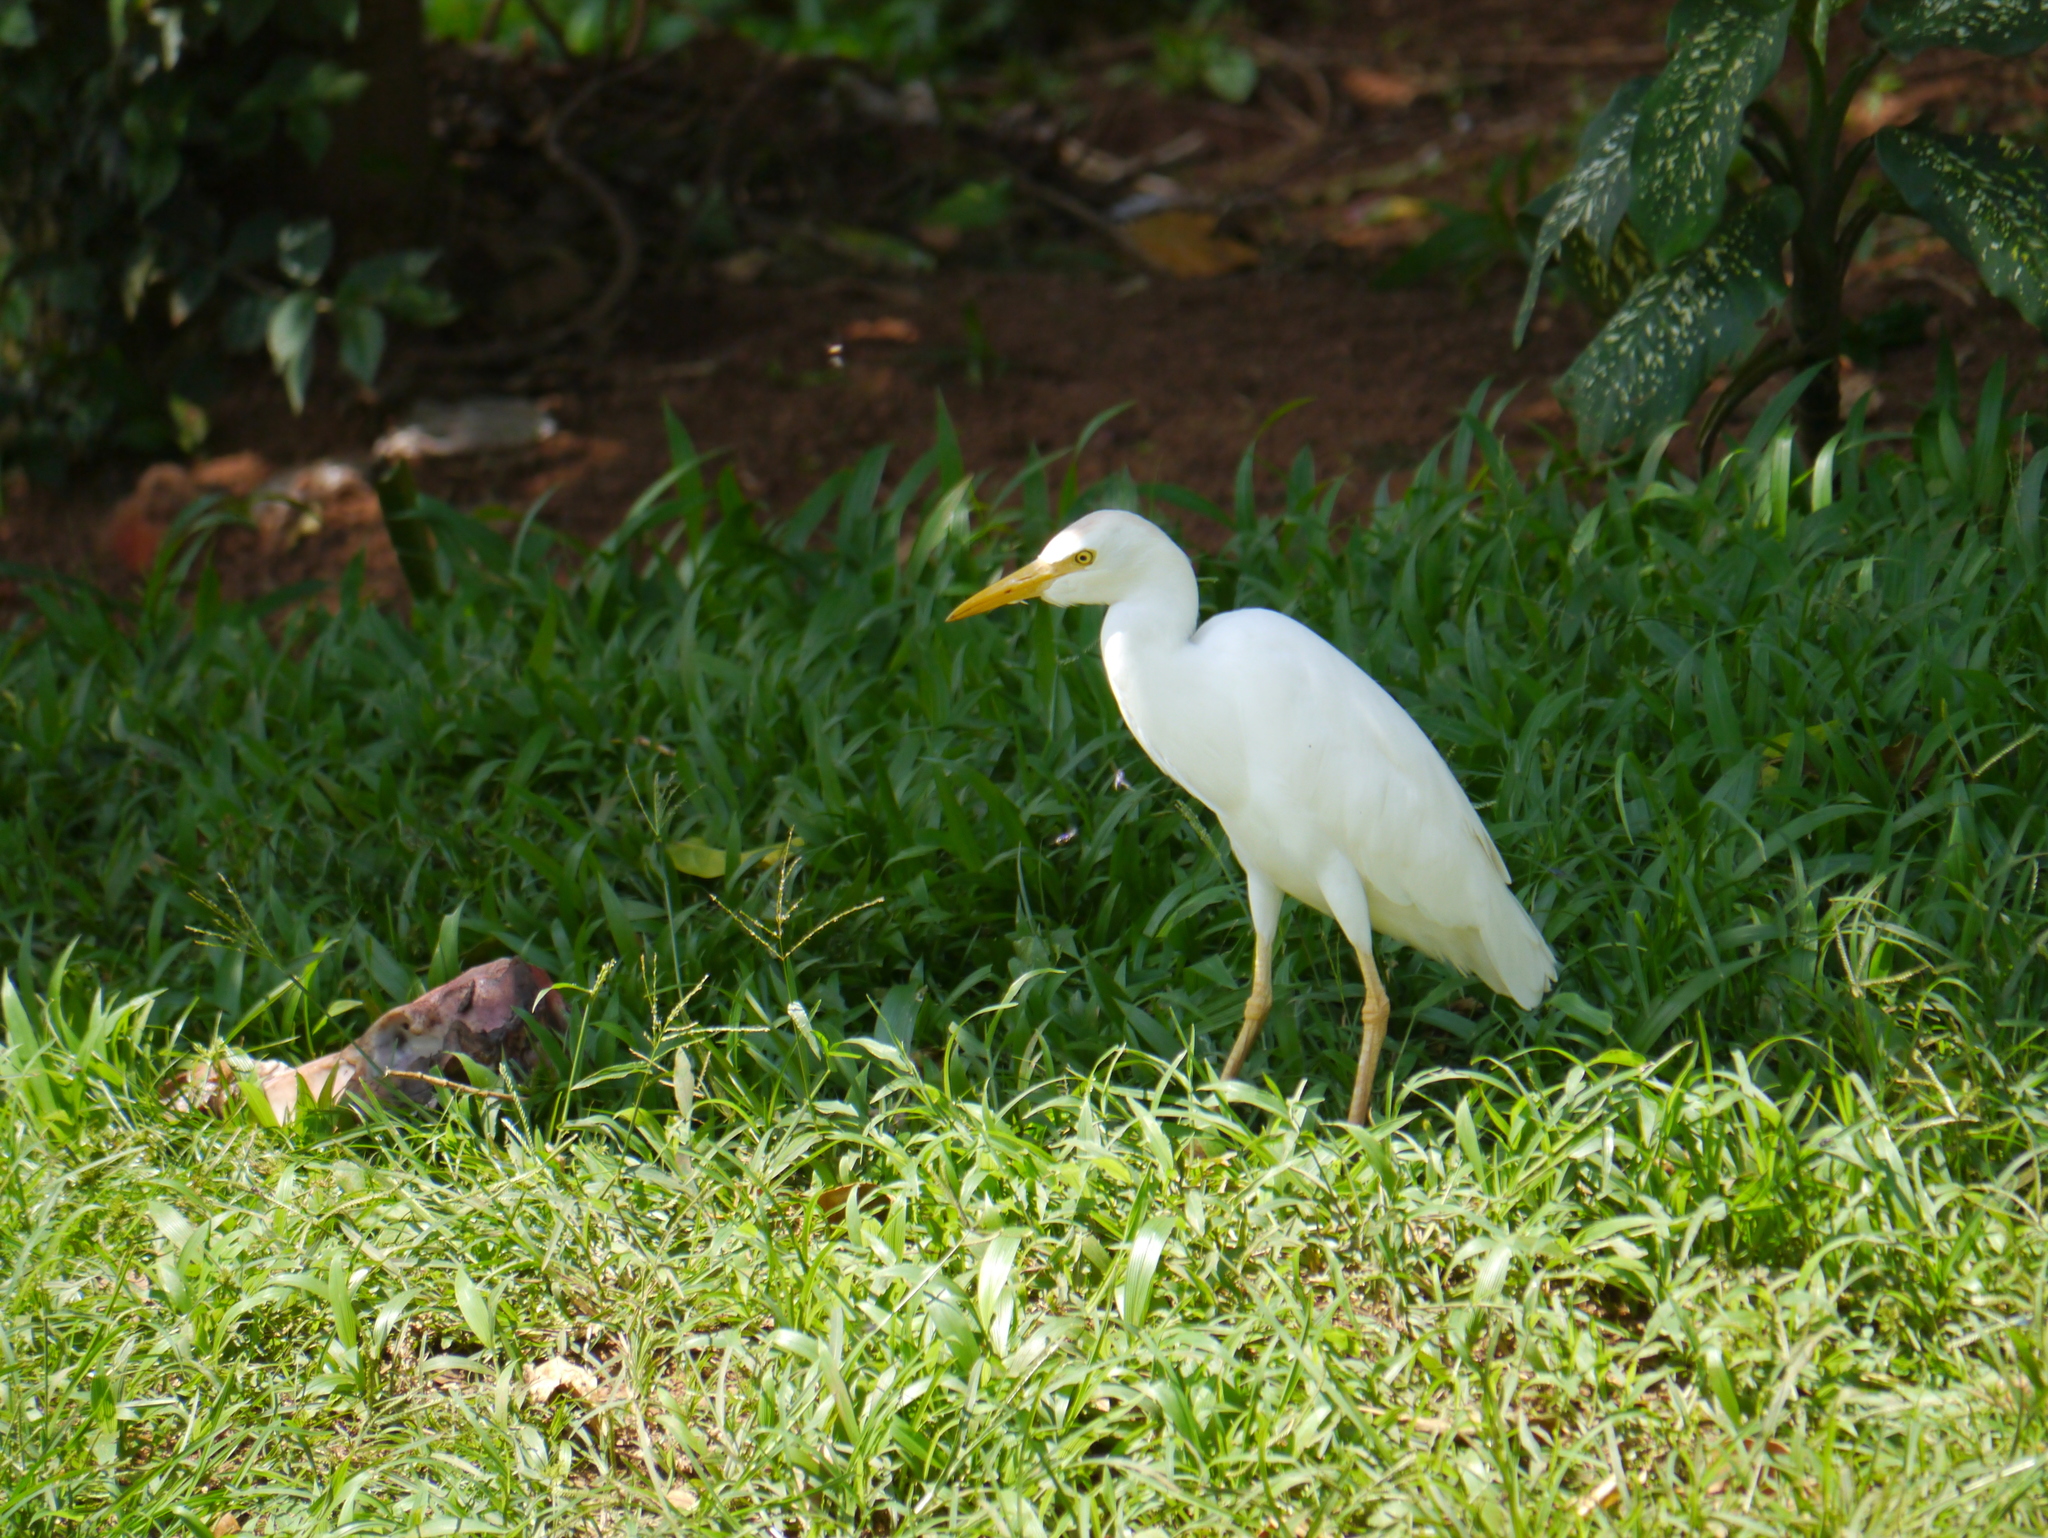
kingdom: Animalia
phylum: Chordata
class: Aves
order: Pelecaniformes
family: Ardeidae
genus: Bubulcus
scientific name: Bubulcus ibis
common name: Cattle egret
